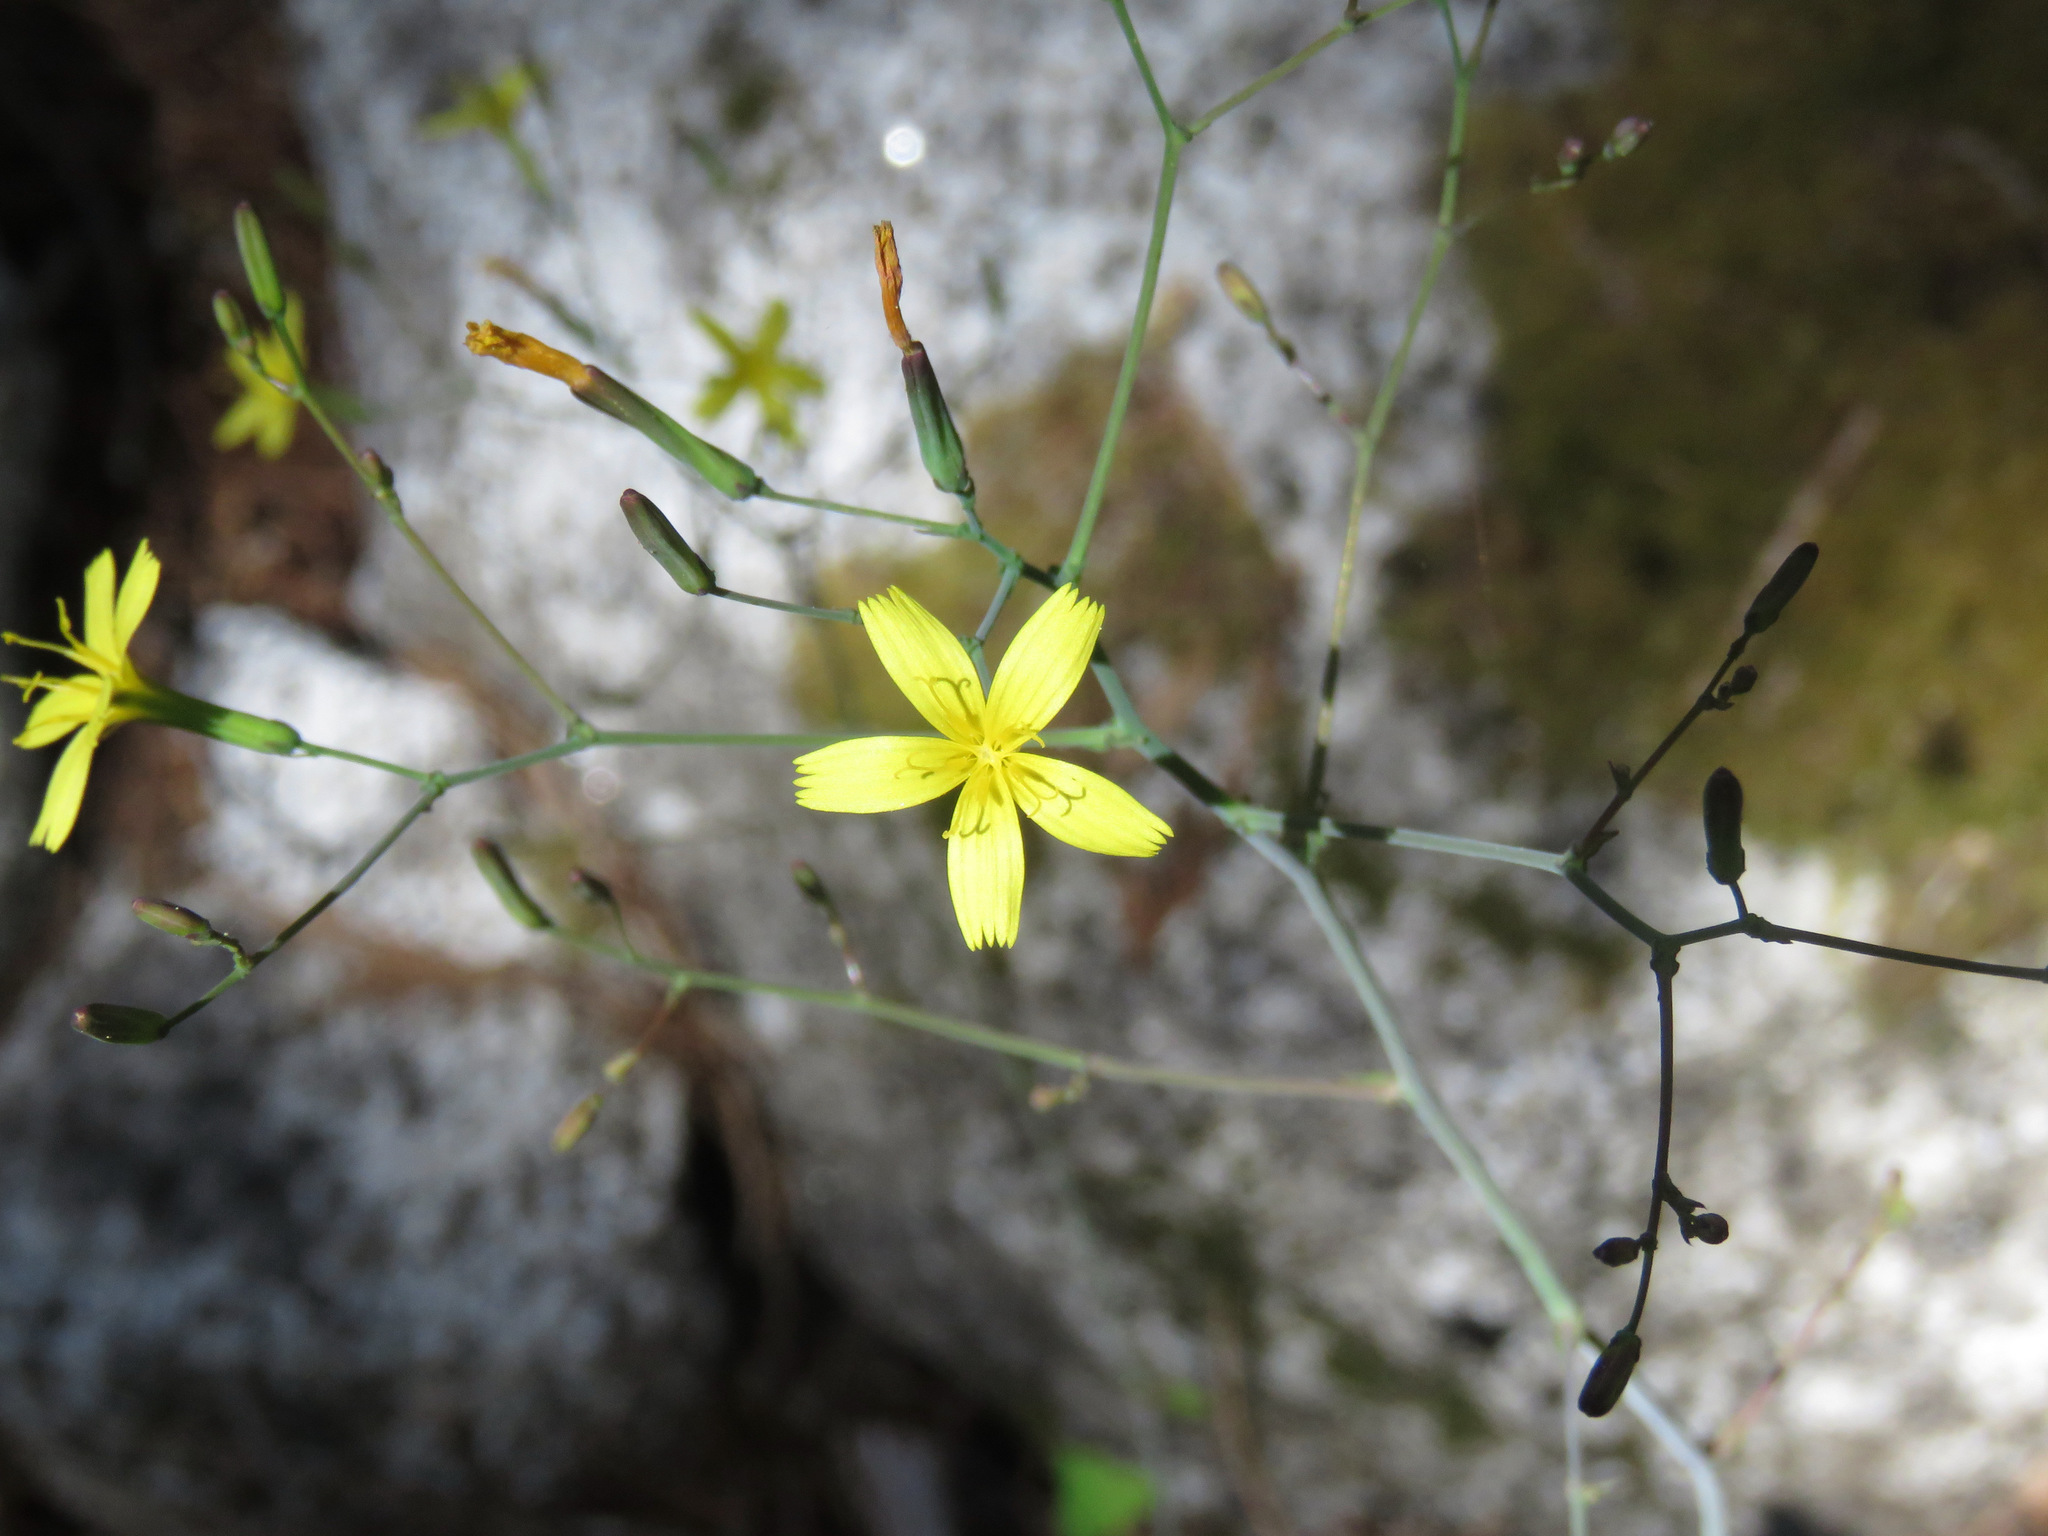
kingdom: Plantae
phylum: Tracheophyta
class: Magnoliopsida
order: Asterales
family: Asteraceae
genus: Mycelis
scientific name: Mycelis muralis
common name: Wall lettuce
